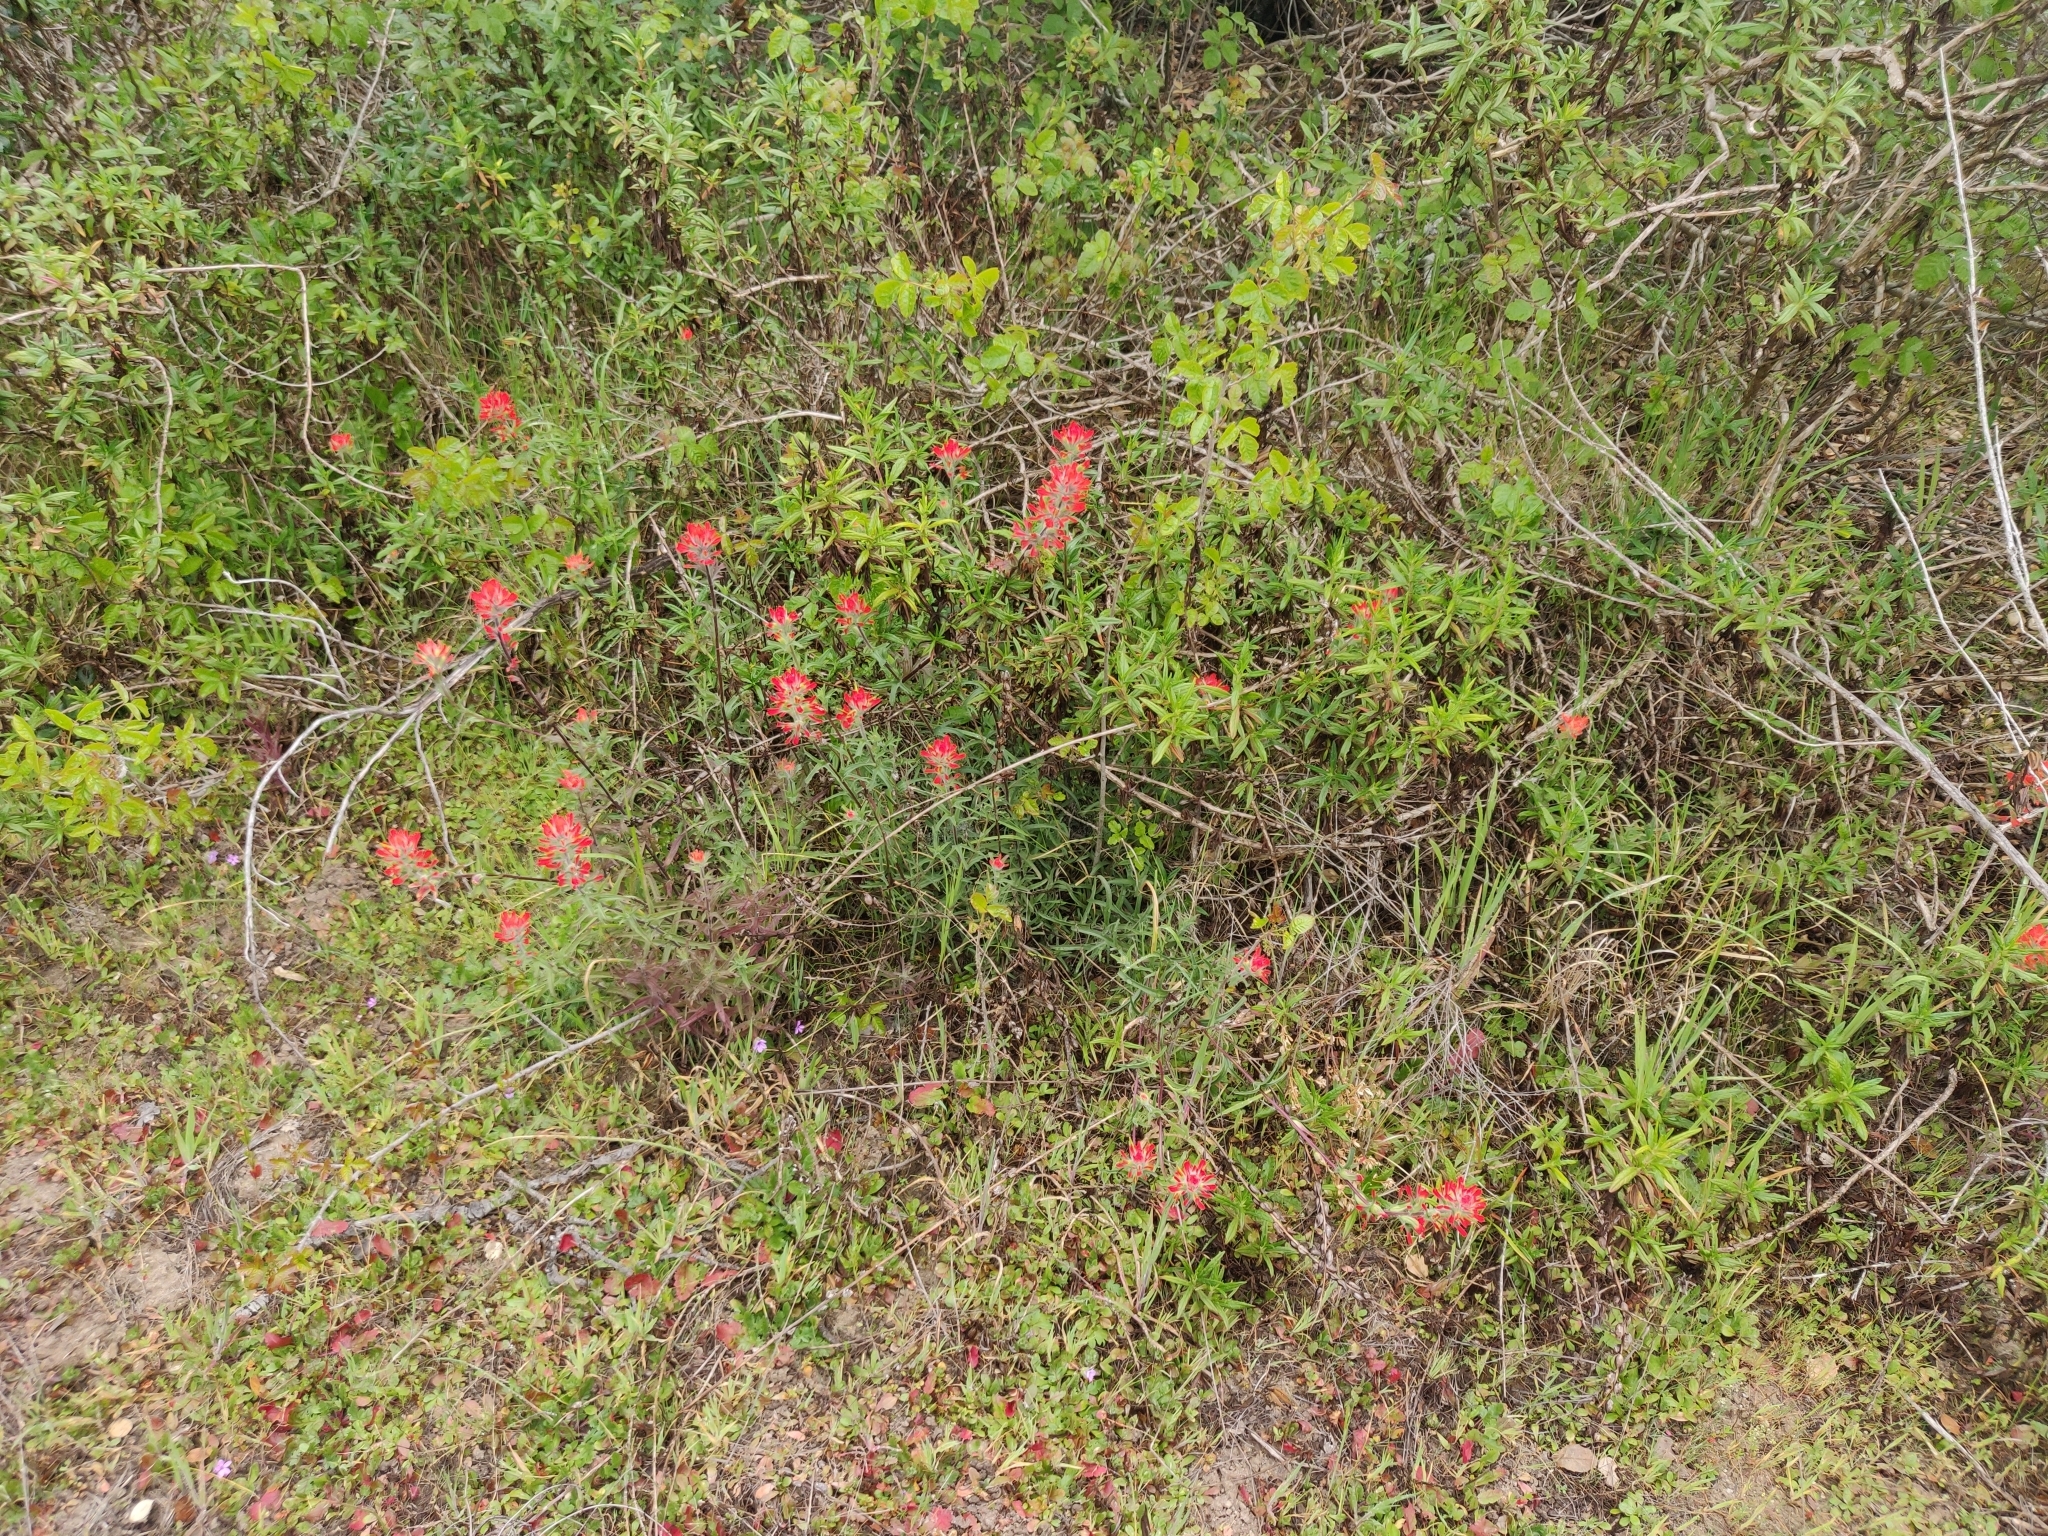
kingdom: Plantae
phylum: Tracheophyta
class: Magnoliopsida
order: Lamiales
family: Orobanchaceae
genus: Castilleja
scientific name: Castilleja affinis
